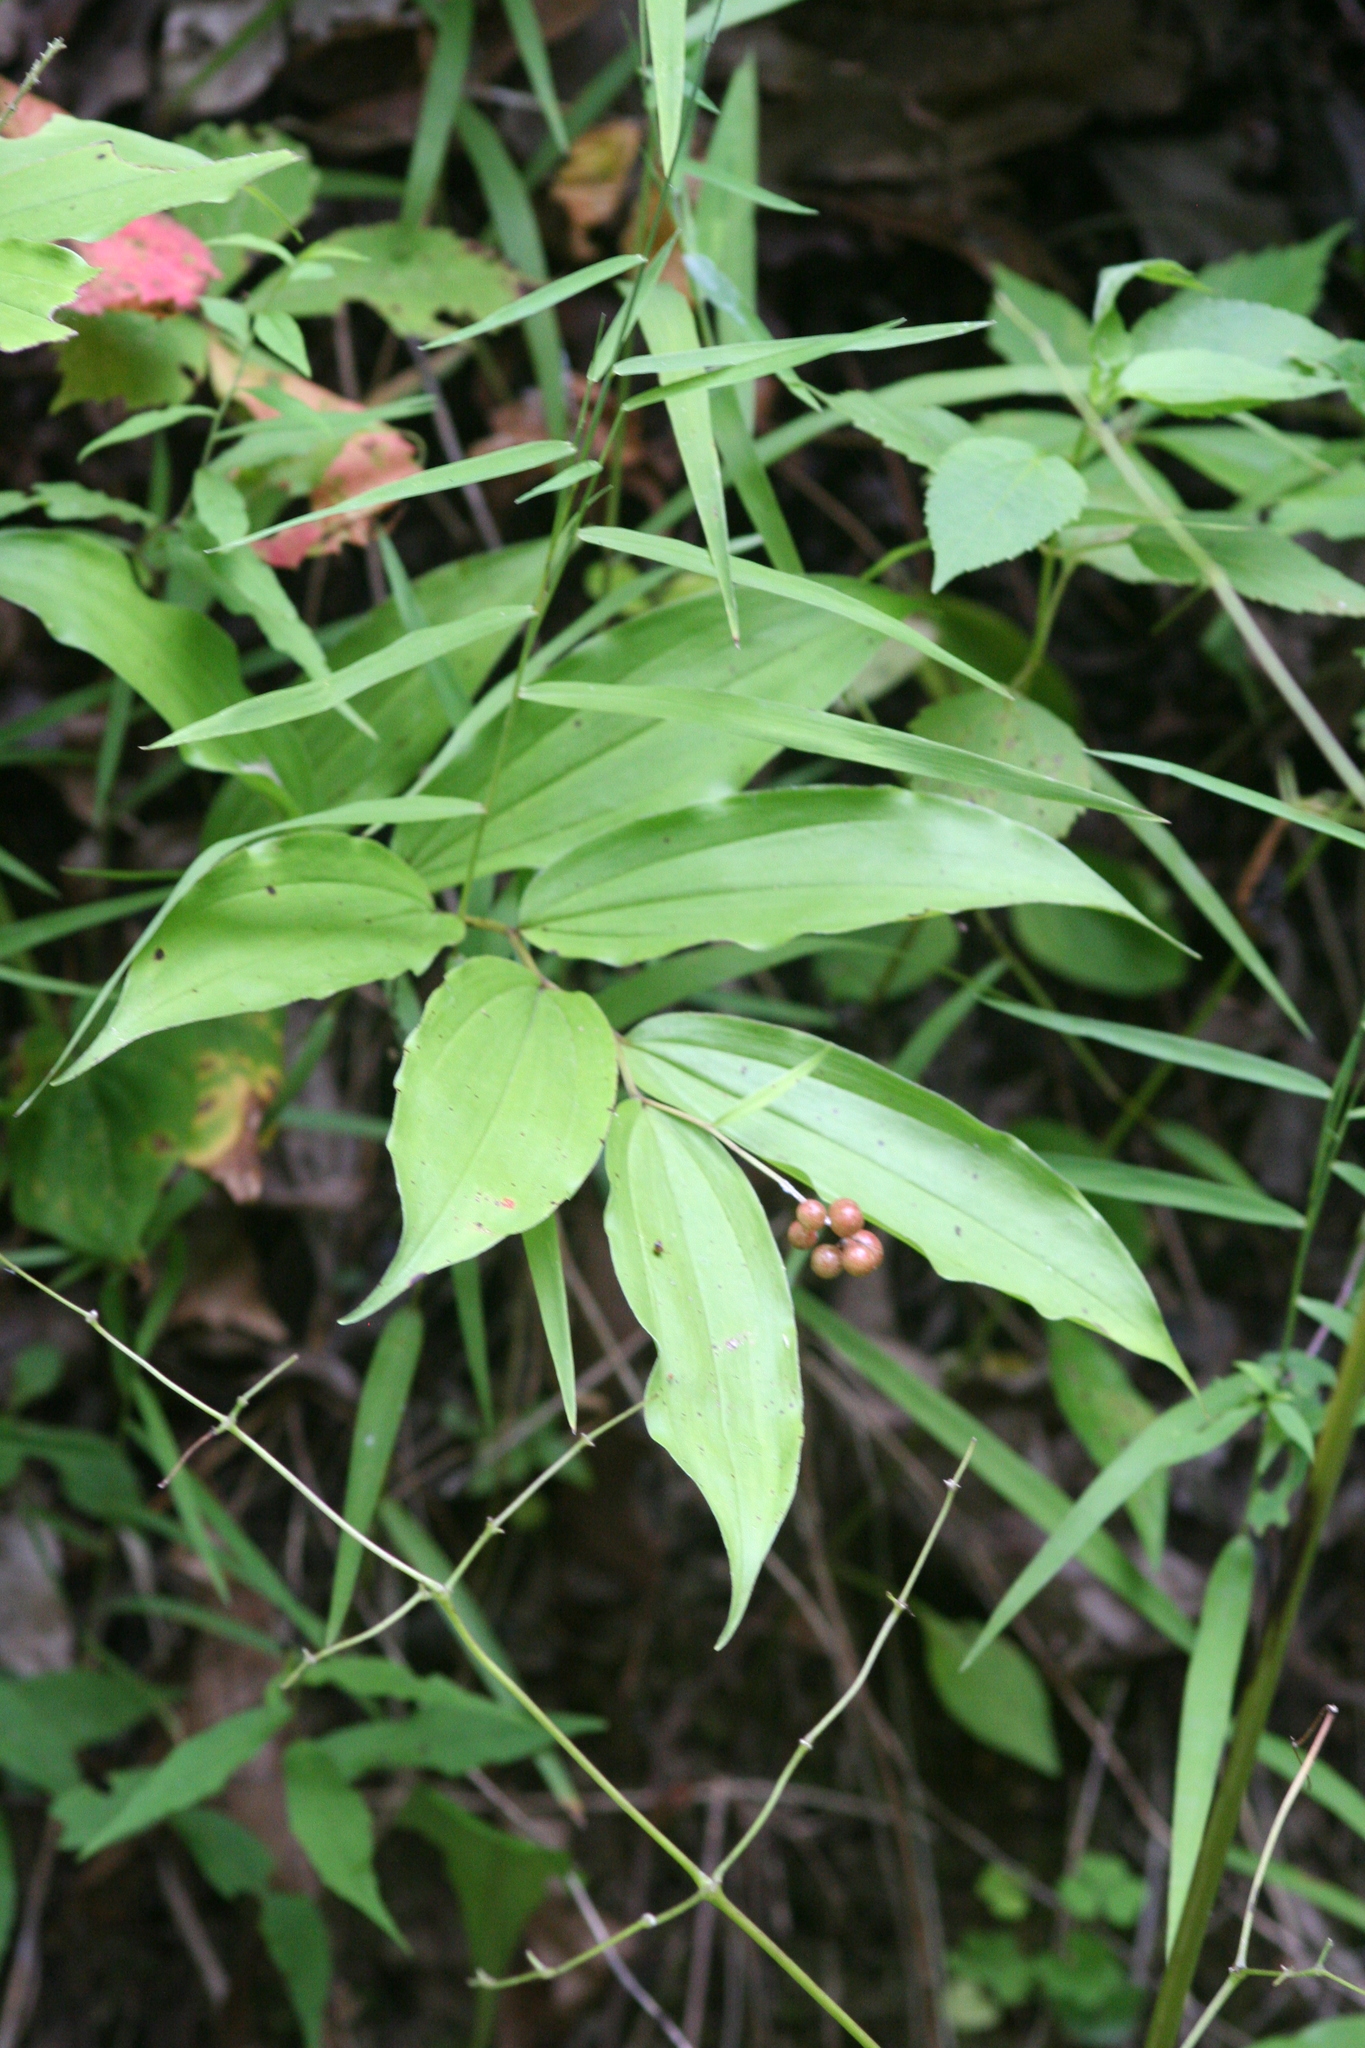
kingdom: Plantae
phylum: Tracheophyta
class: Liliopsida
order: Asparagales
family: Asparagaceae
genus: Maianthemum
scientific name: Maianthemum racemosum
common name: False spikenard
